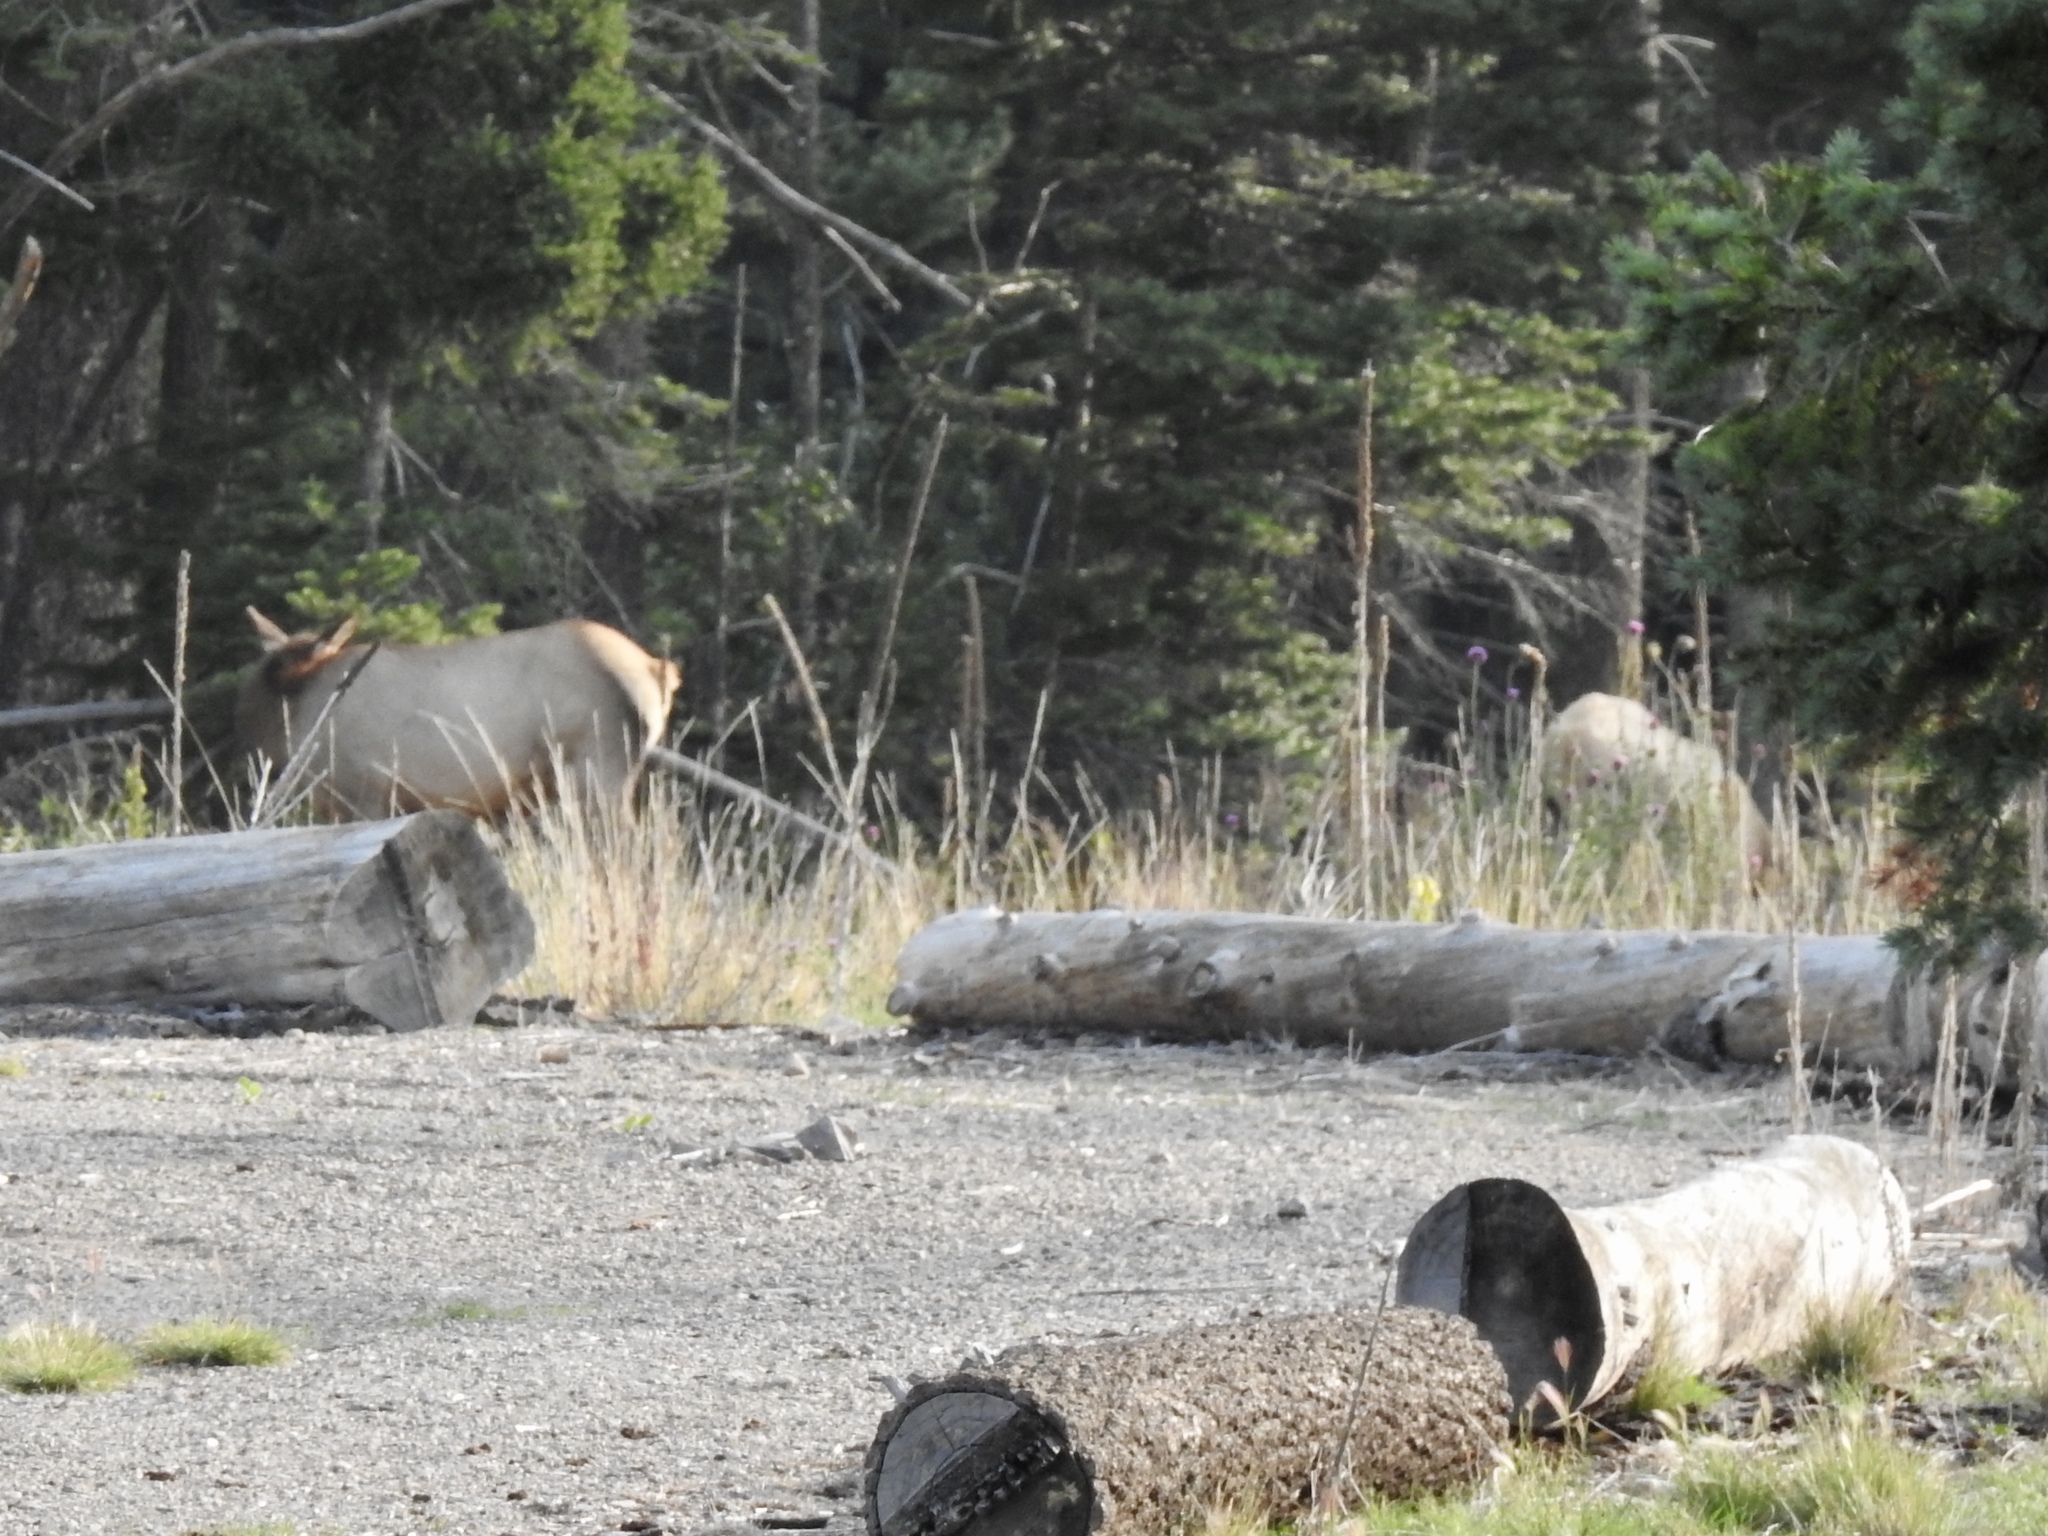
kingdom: Animalia
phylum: Chordata
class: Mammalia
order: Artiodactyla
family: Cervidae
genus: Cervus
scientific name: Cervus elaphus
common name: Red deer
